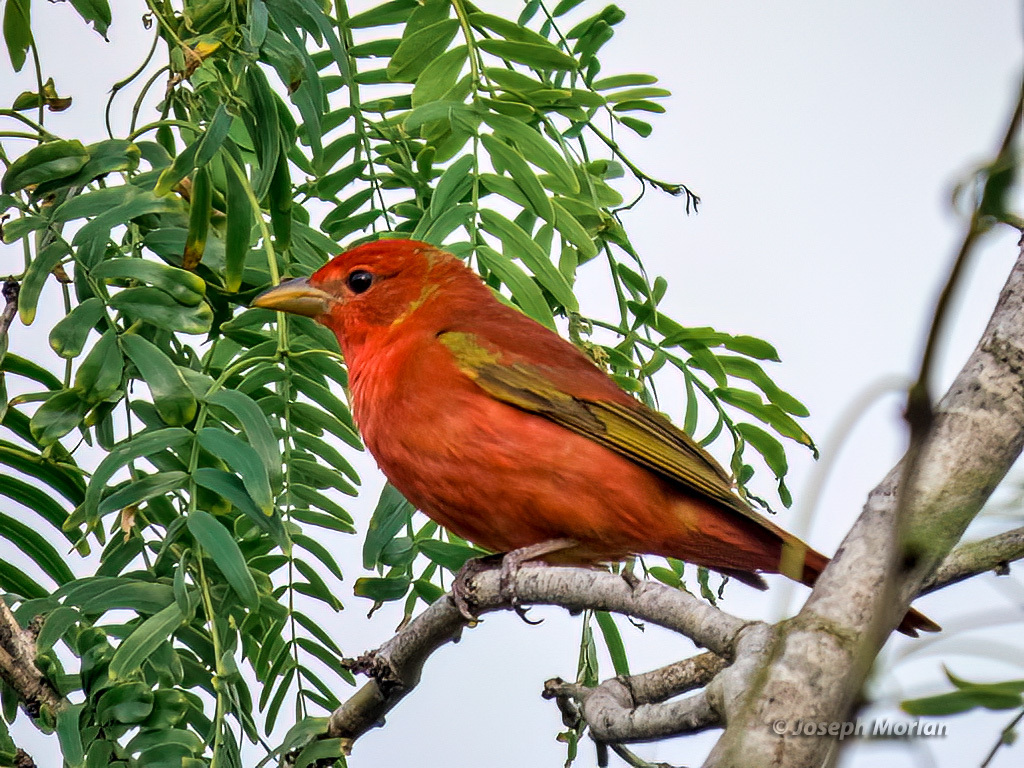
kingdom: Animalia
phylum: Chordata
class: Aves
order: Passeriformes
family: Cardinalidae
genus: Piranga
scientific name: Piranga rubra
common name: Summer tanager
